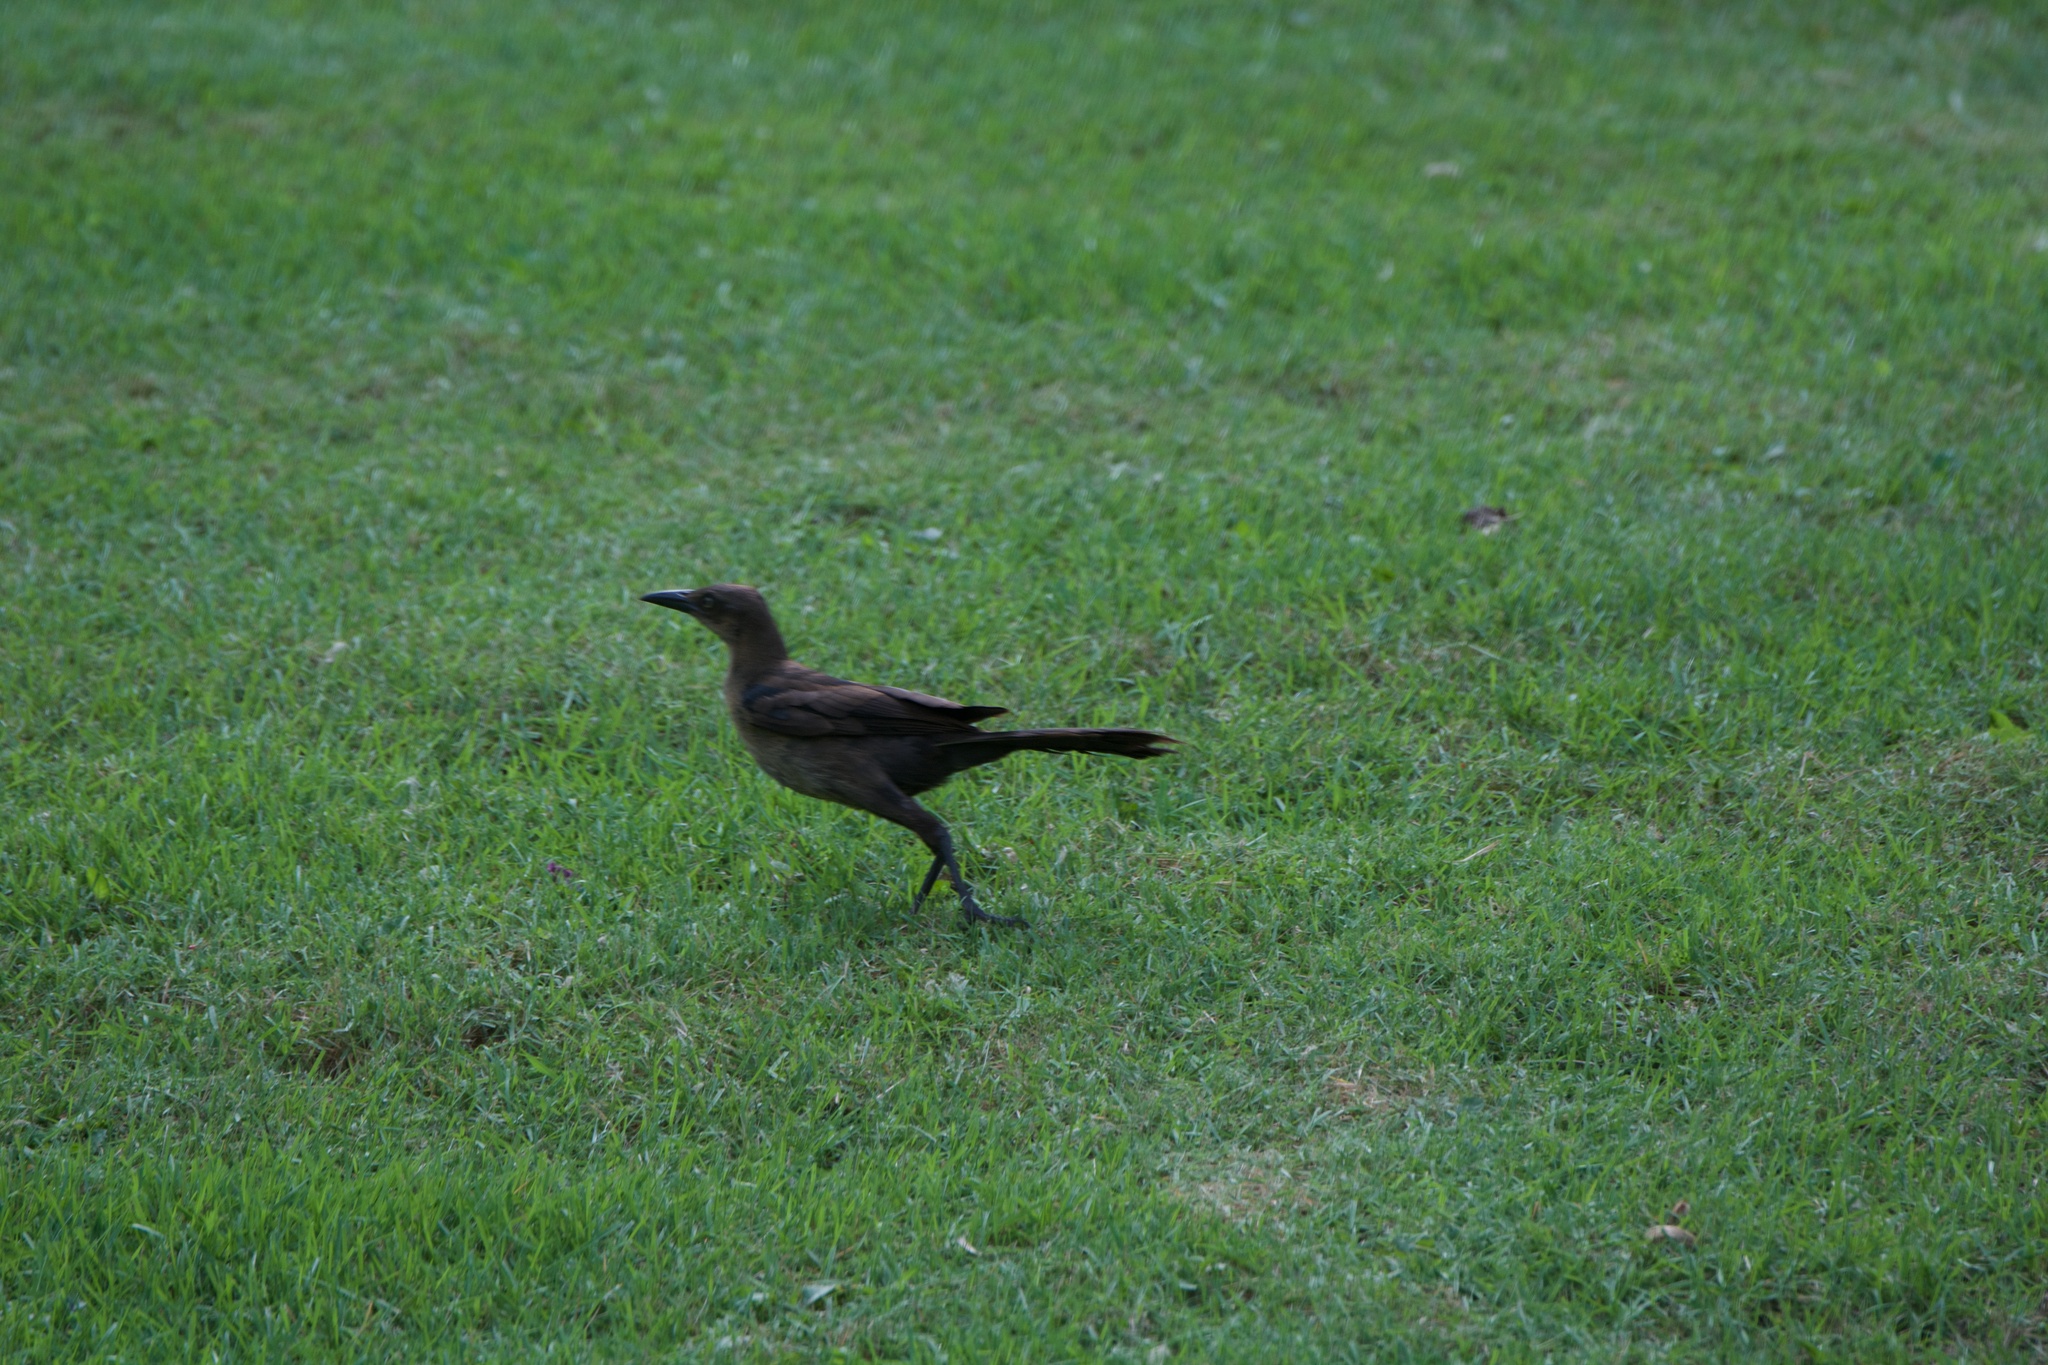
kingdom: Animalia
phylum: Chordata
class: Aves
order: Passeriformes
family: Icteridae
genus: Quiscalus
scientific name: Quiscalus mexicanus
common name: Great-tailed grackle
